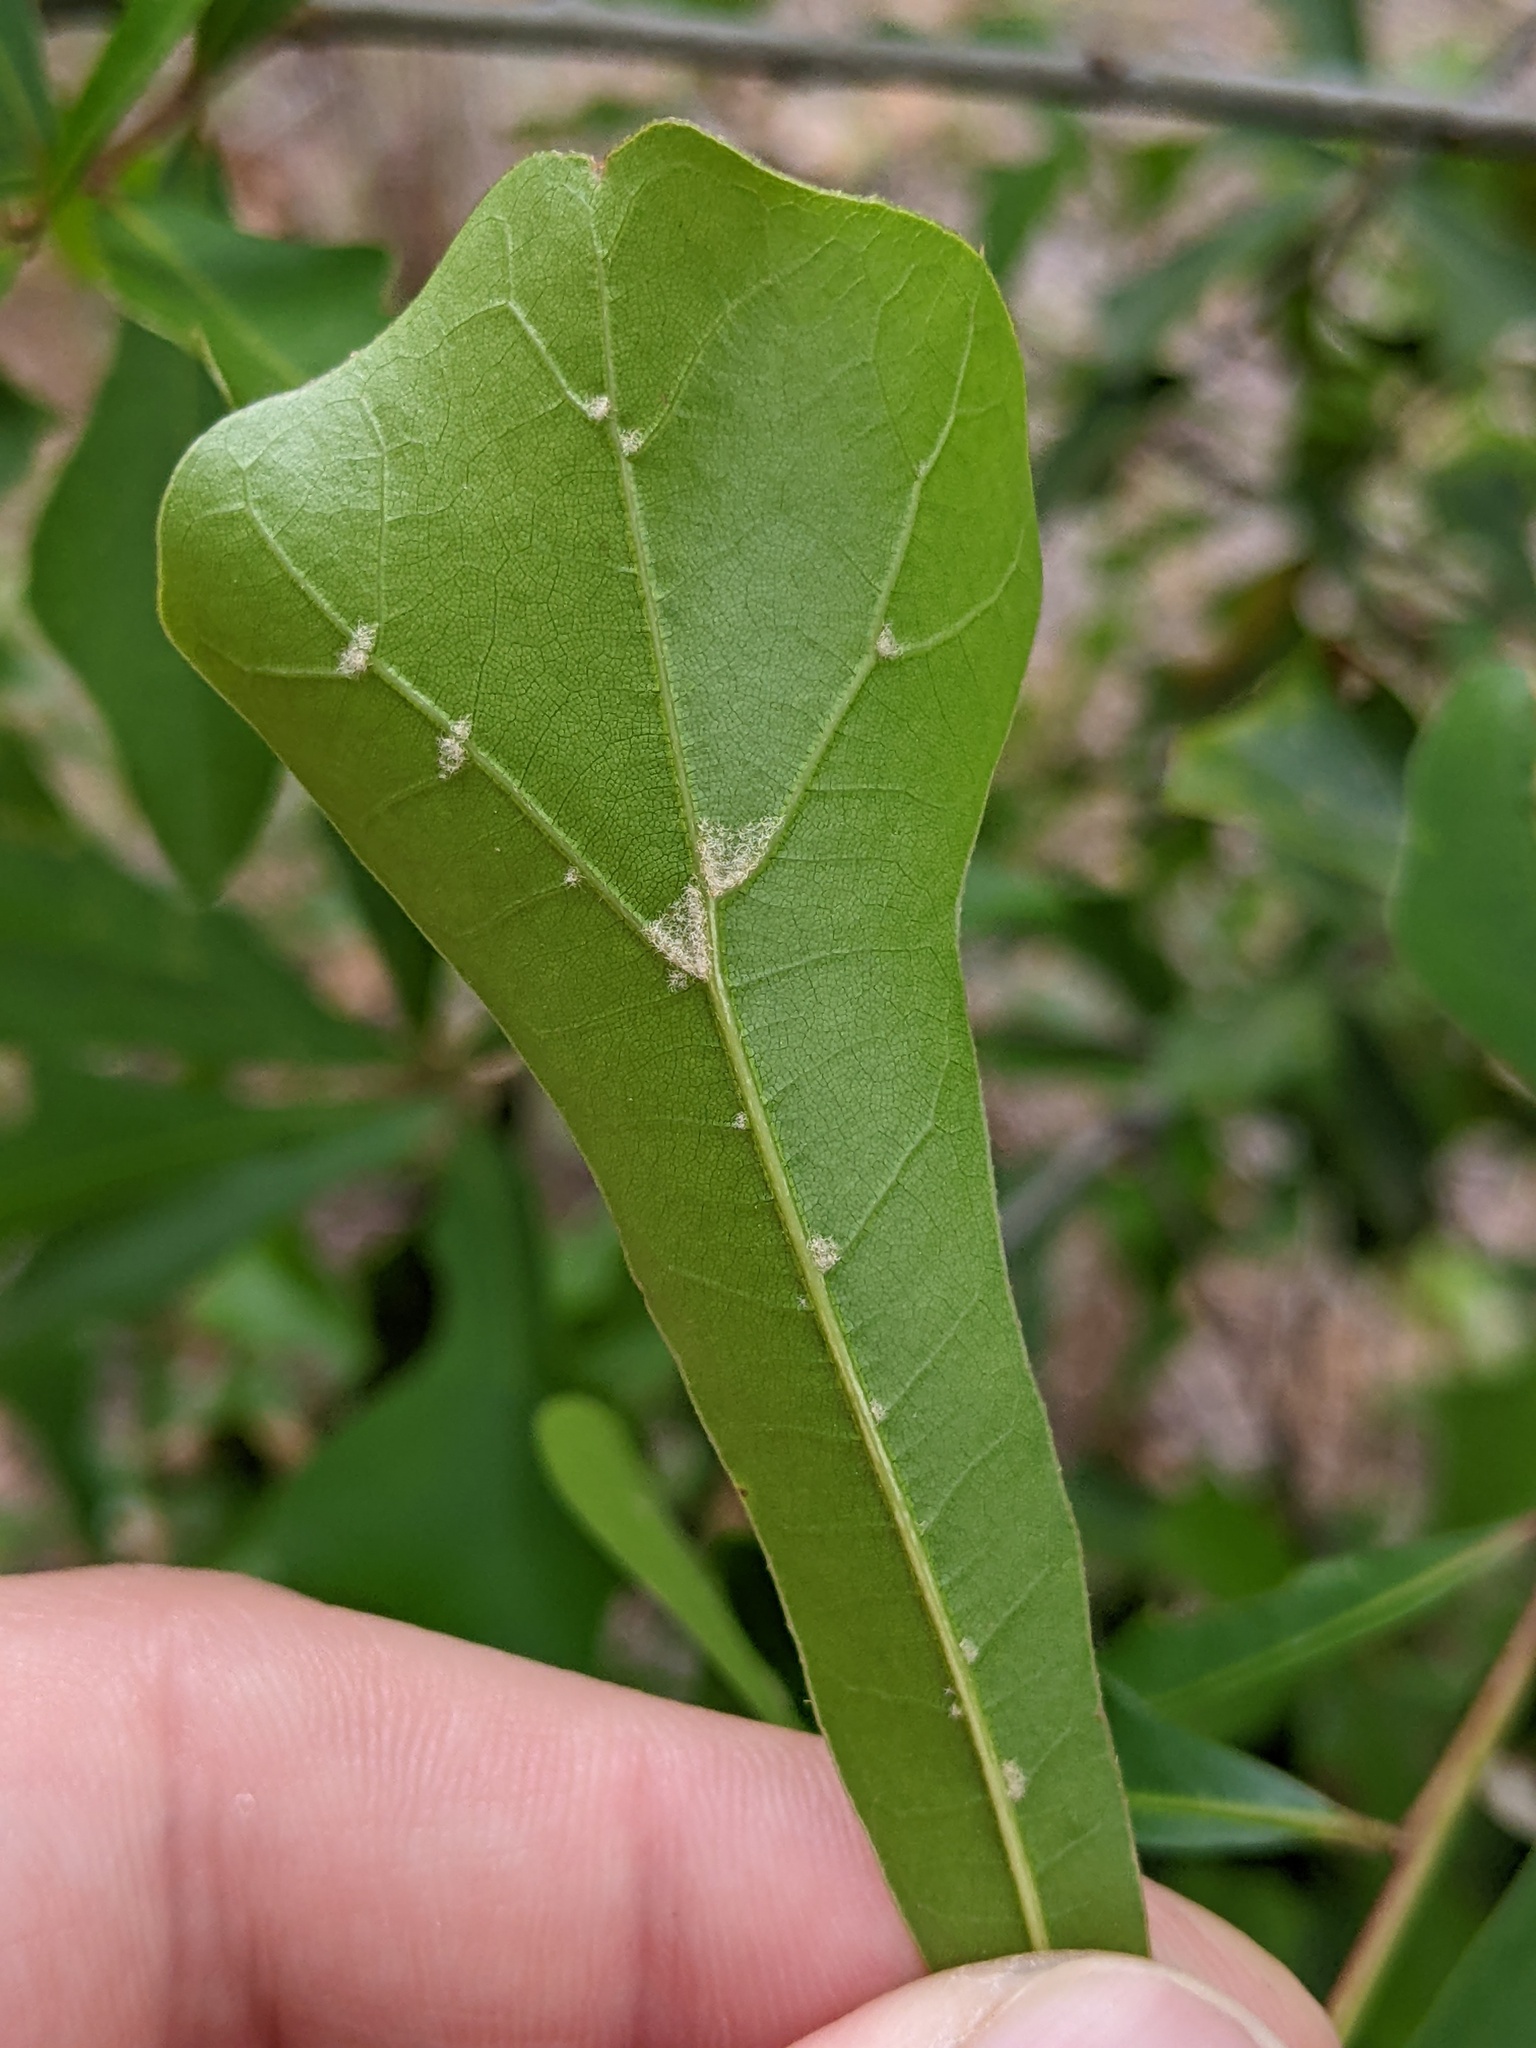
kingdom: Plantae
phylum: Tracheophyta
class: Magnoliopsida
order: Fagales
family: Fagaceae
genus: Quercus
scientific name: Quercus nigra
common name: Water oak
